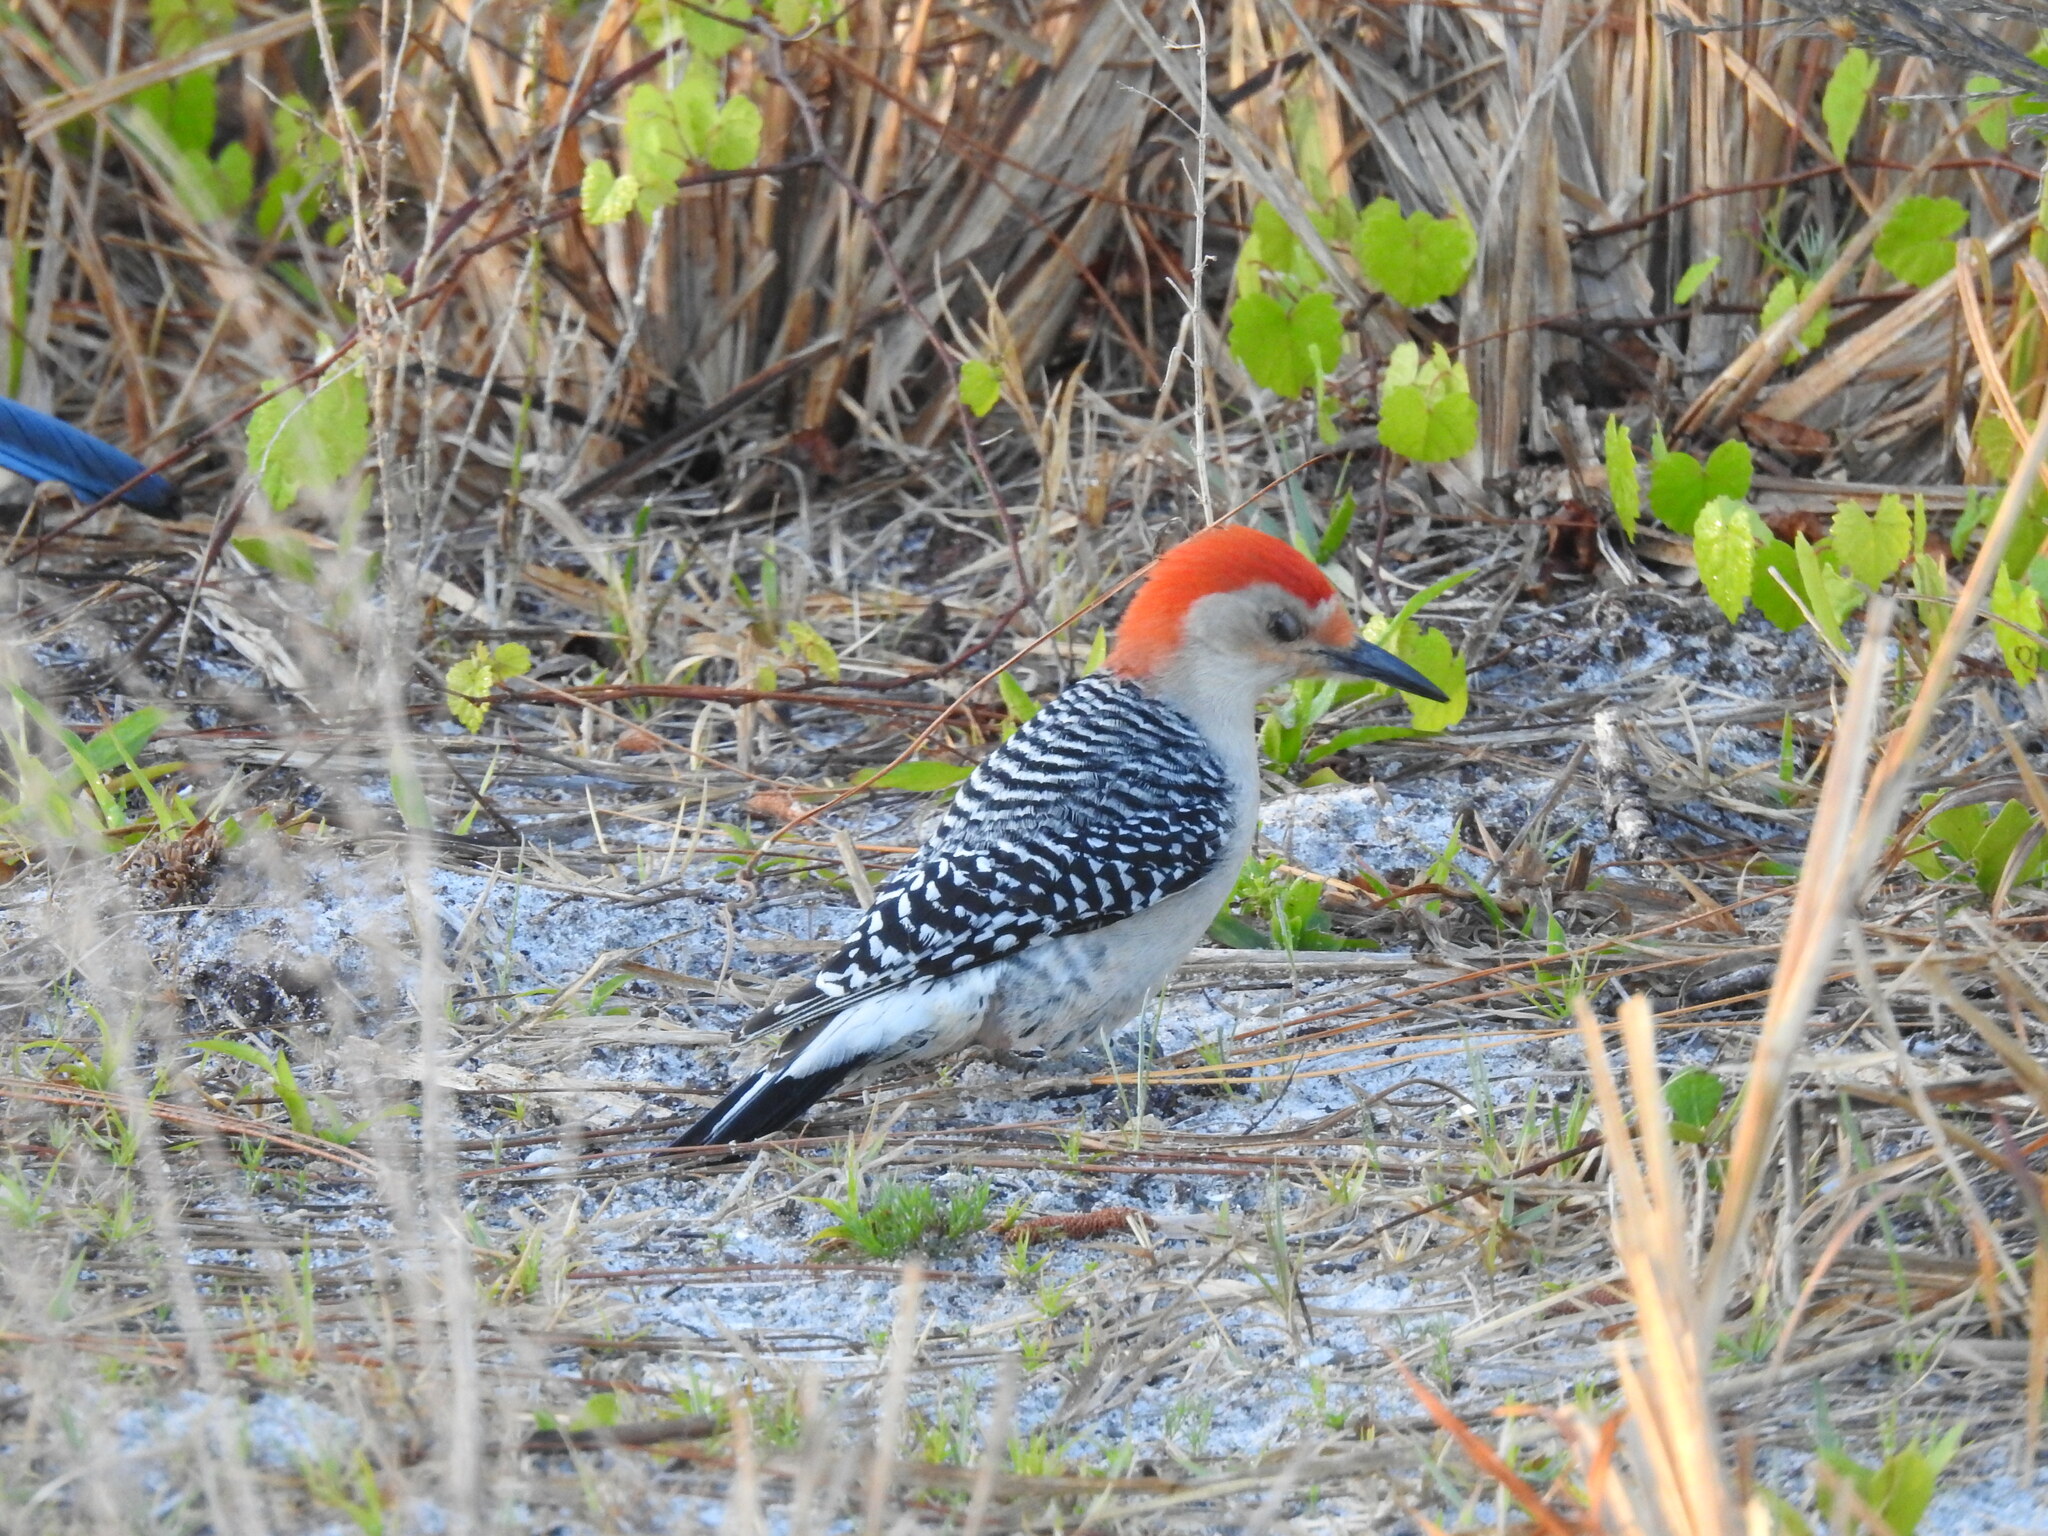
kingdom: Animalia
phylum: Chordata
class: Aves
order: Piciformes
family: Picidae
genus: Melanerpes
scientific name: Melanerpes carolinus
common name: Red-bellied woodpecker
